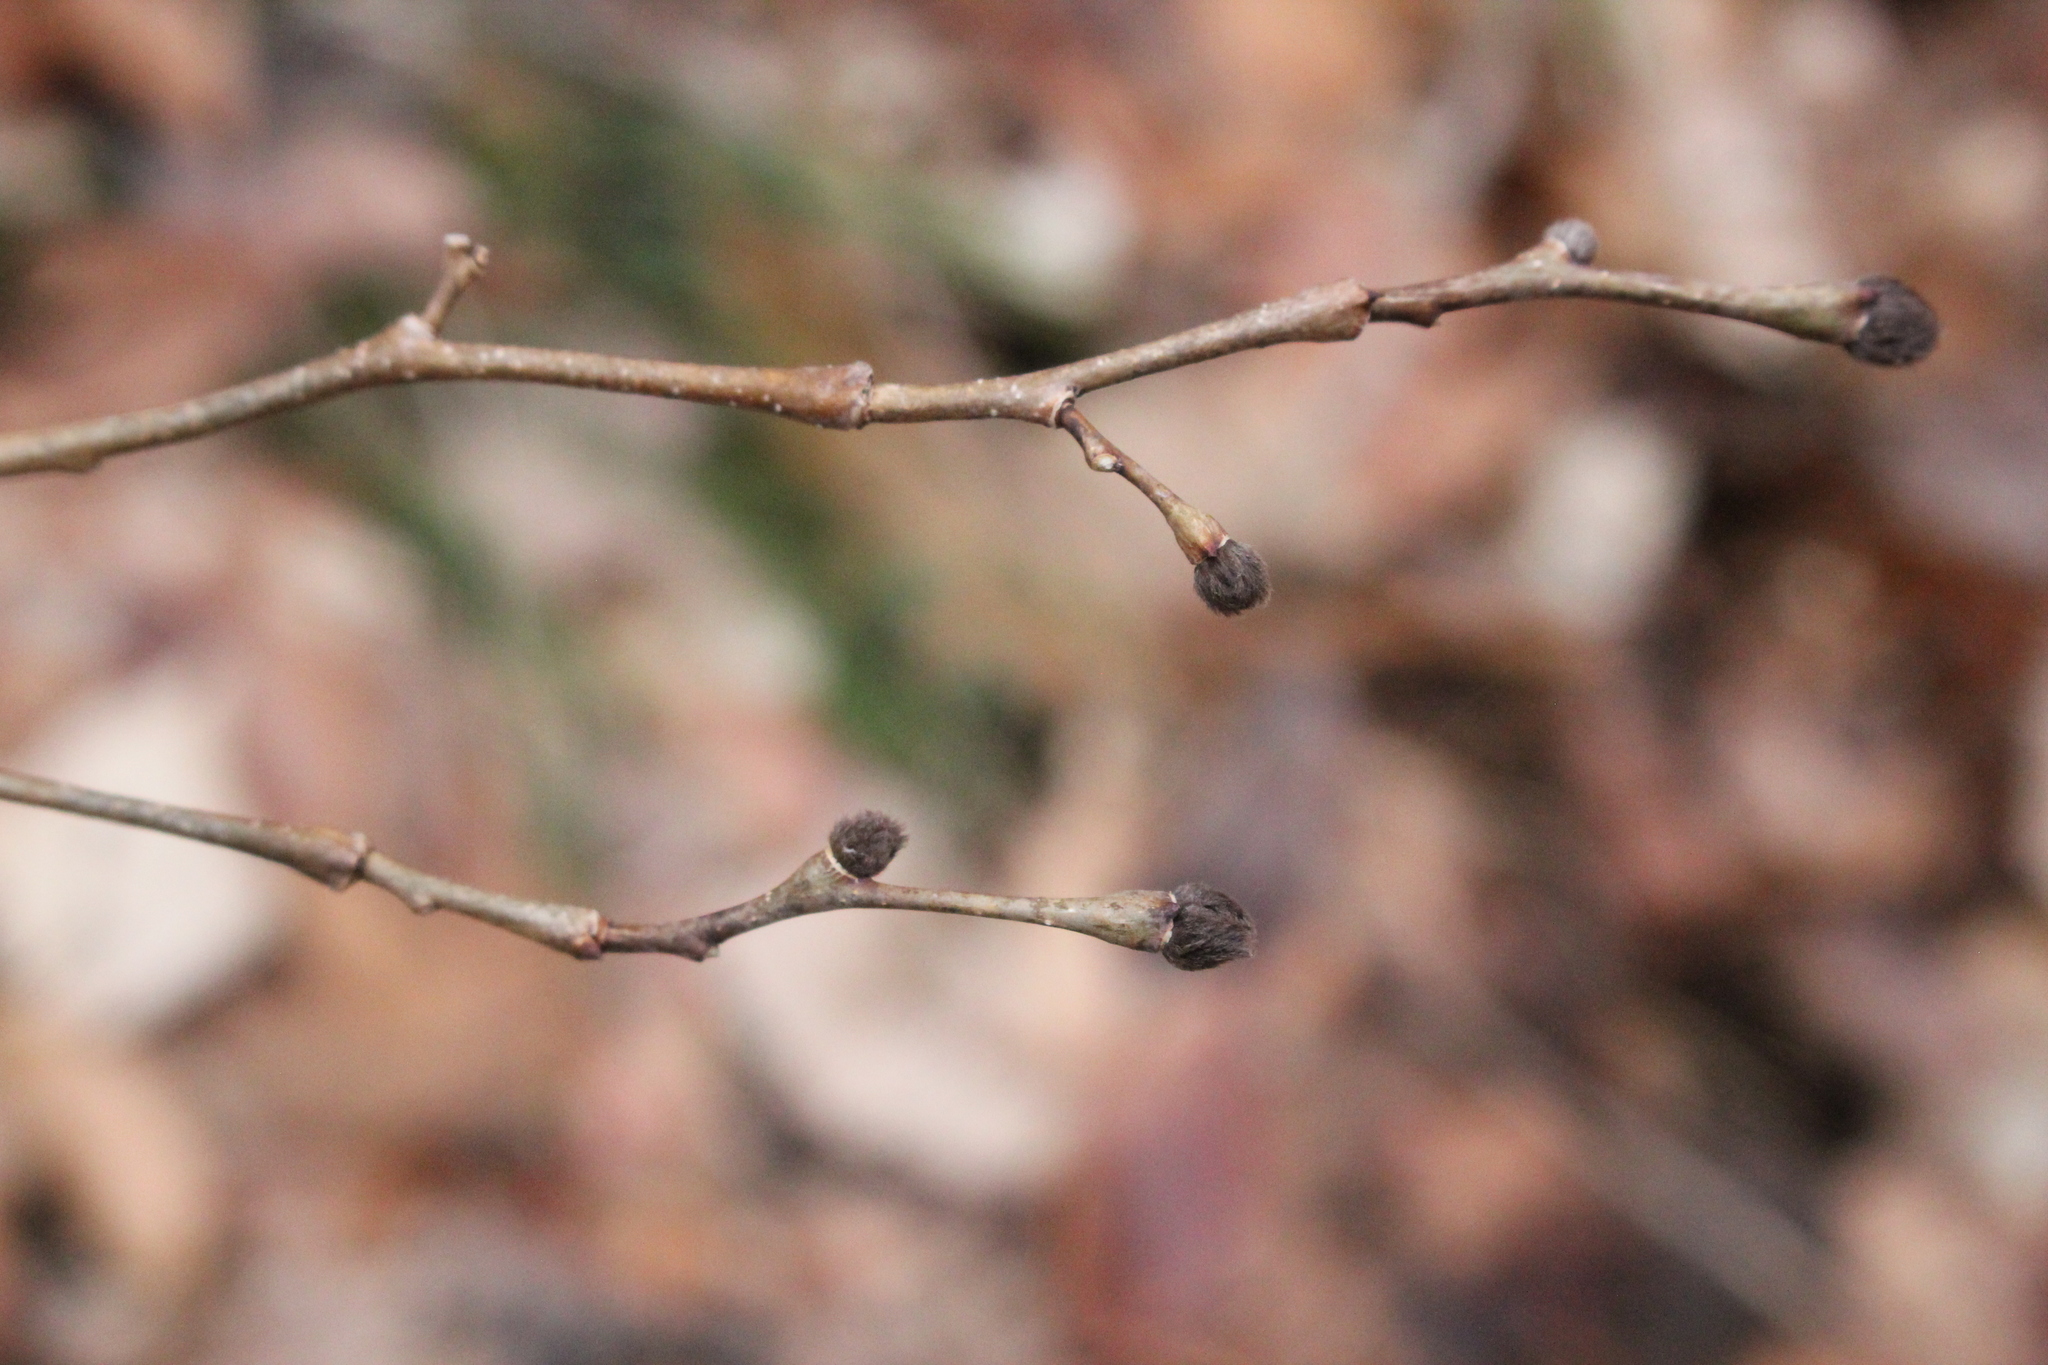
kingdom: Plantae
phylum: Tracheophyta
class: Magnoliopsida
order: Malvales
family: Thymelaeaceae
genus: Dirca
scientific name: Dirca palustris
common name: Leatherwood
